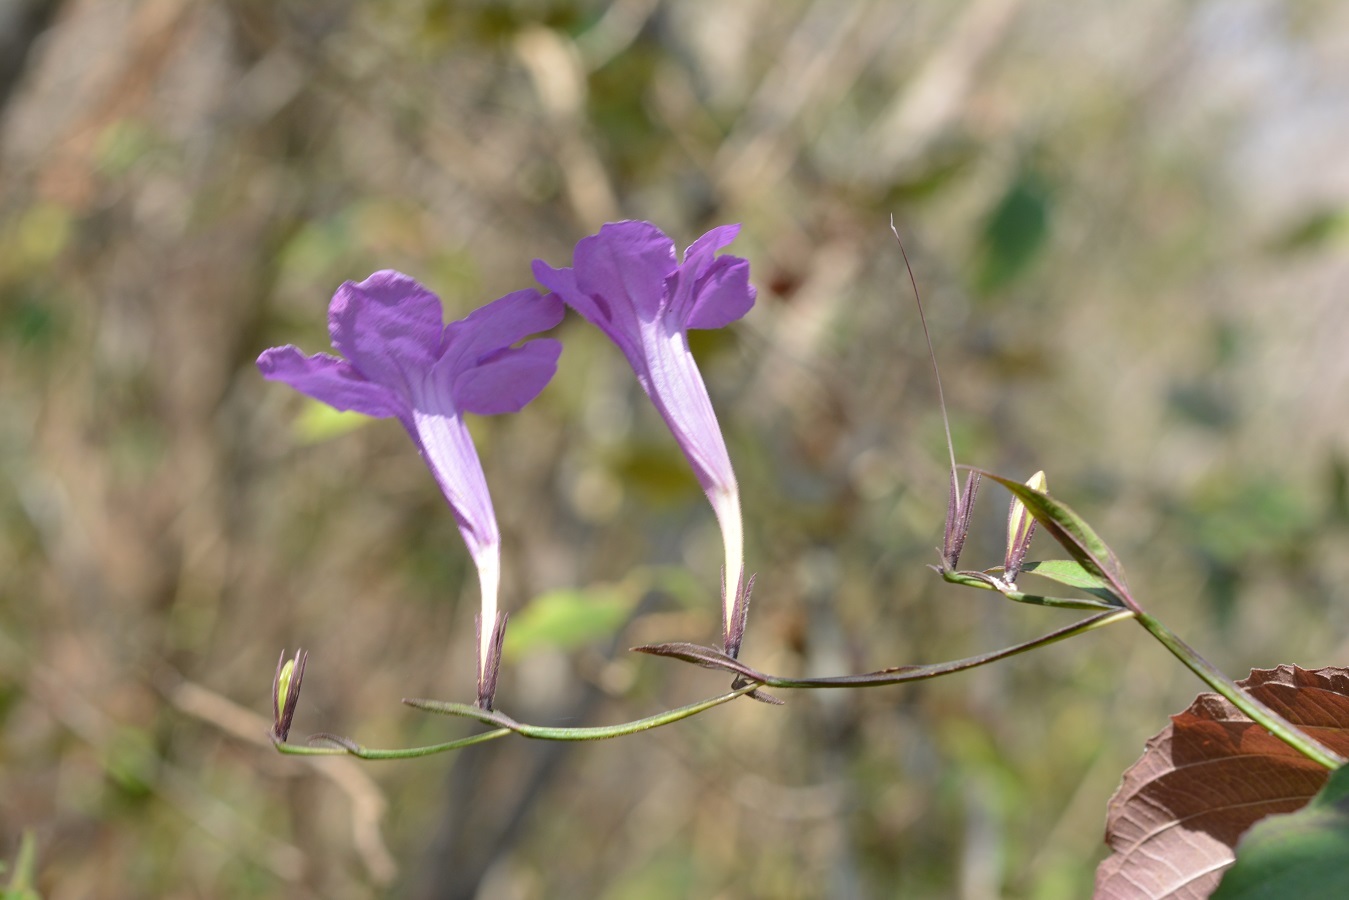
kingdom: Plantae
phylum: Tracheophyta
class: Magnoliopsida
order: Lamiales
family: Acanthaceae
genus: Ruellia
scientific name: Ruellia breedlovei
